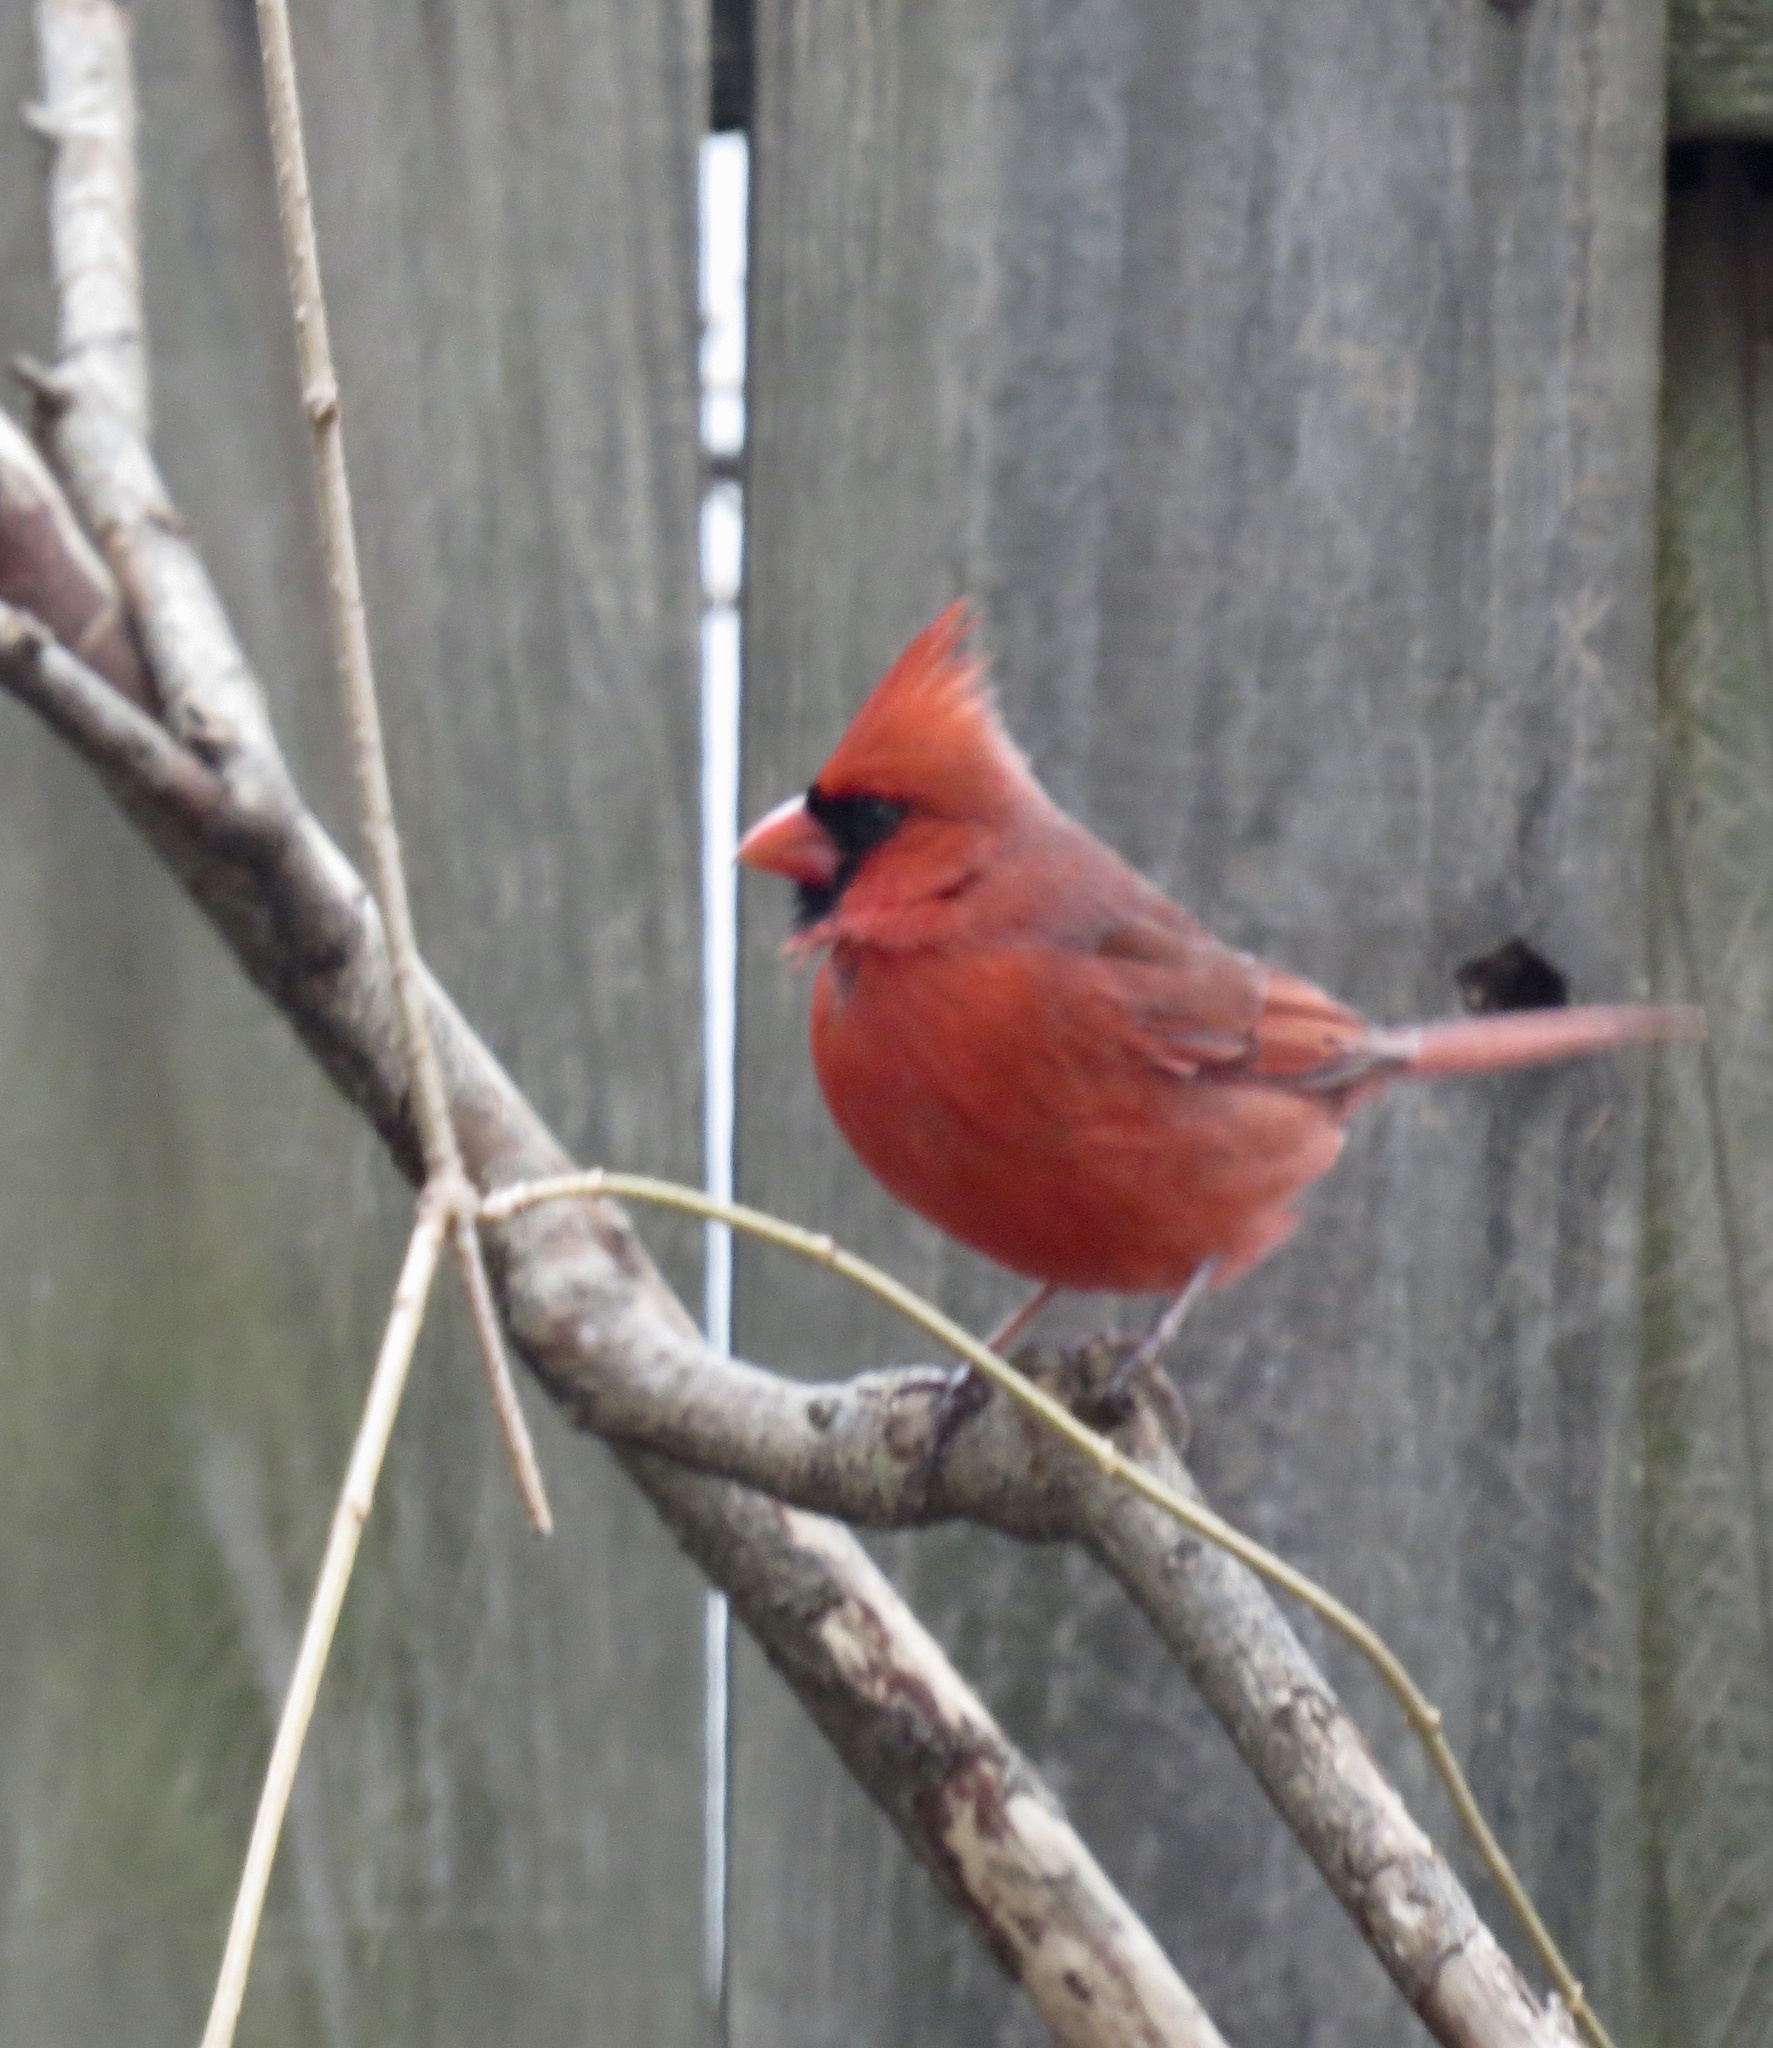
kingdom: Animalia
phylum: Chordata
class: Aves
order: Passeriformes
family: Cardinalidae
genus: Cardinalis
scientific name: Cardinalis cardinalis
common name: Northern cardinal
